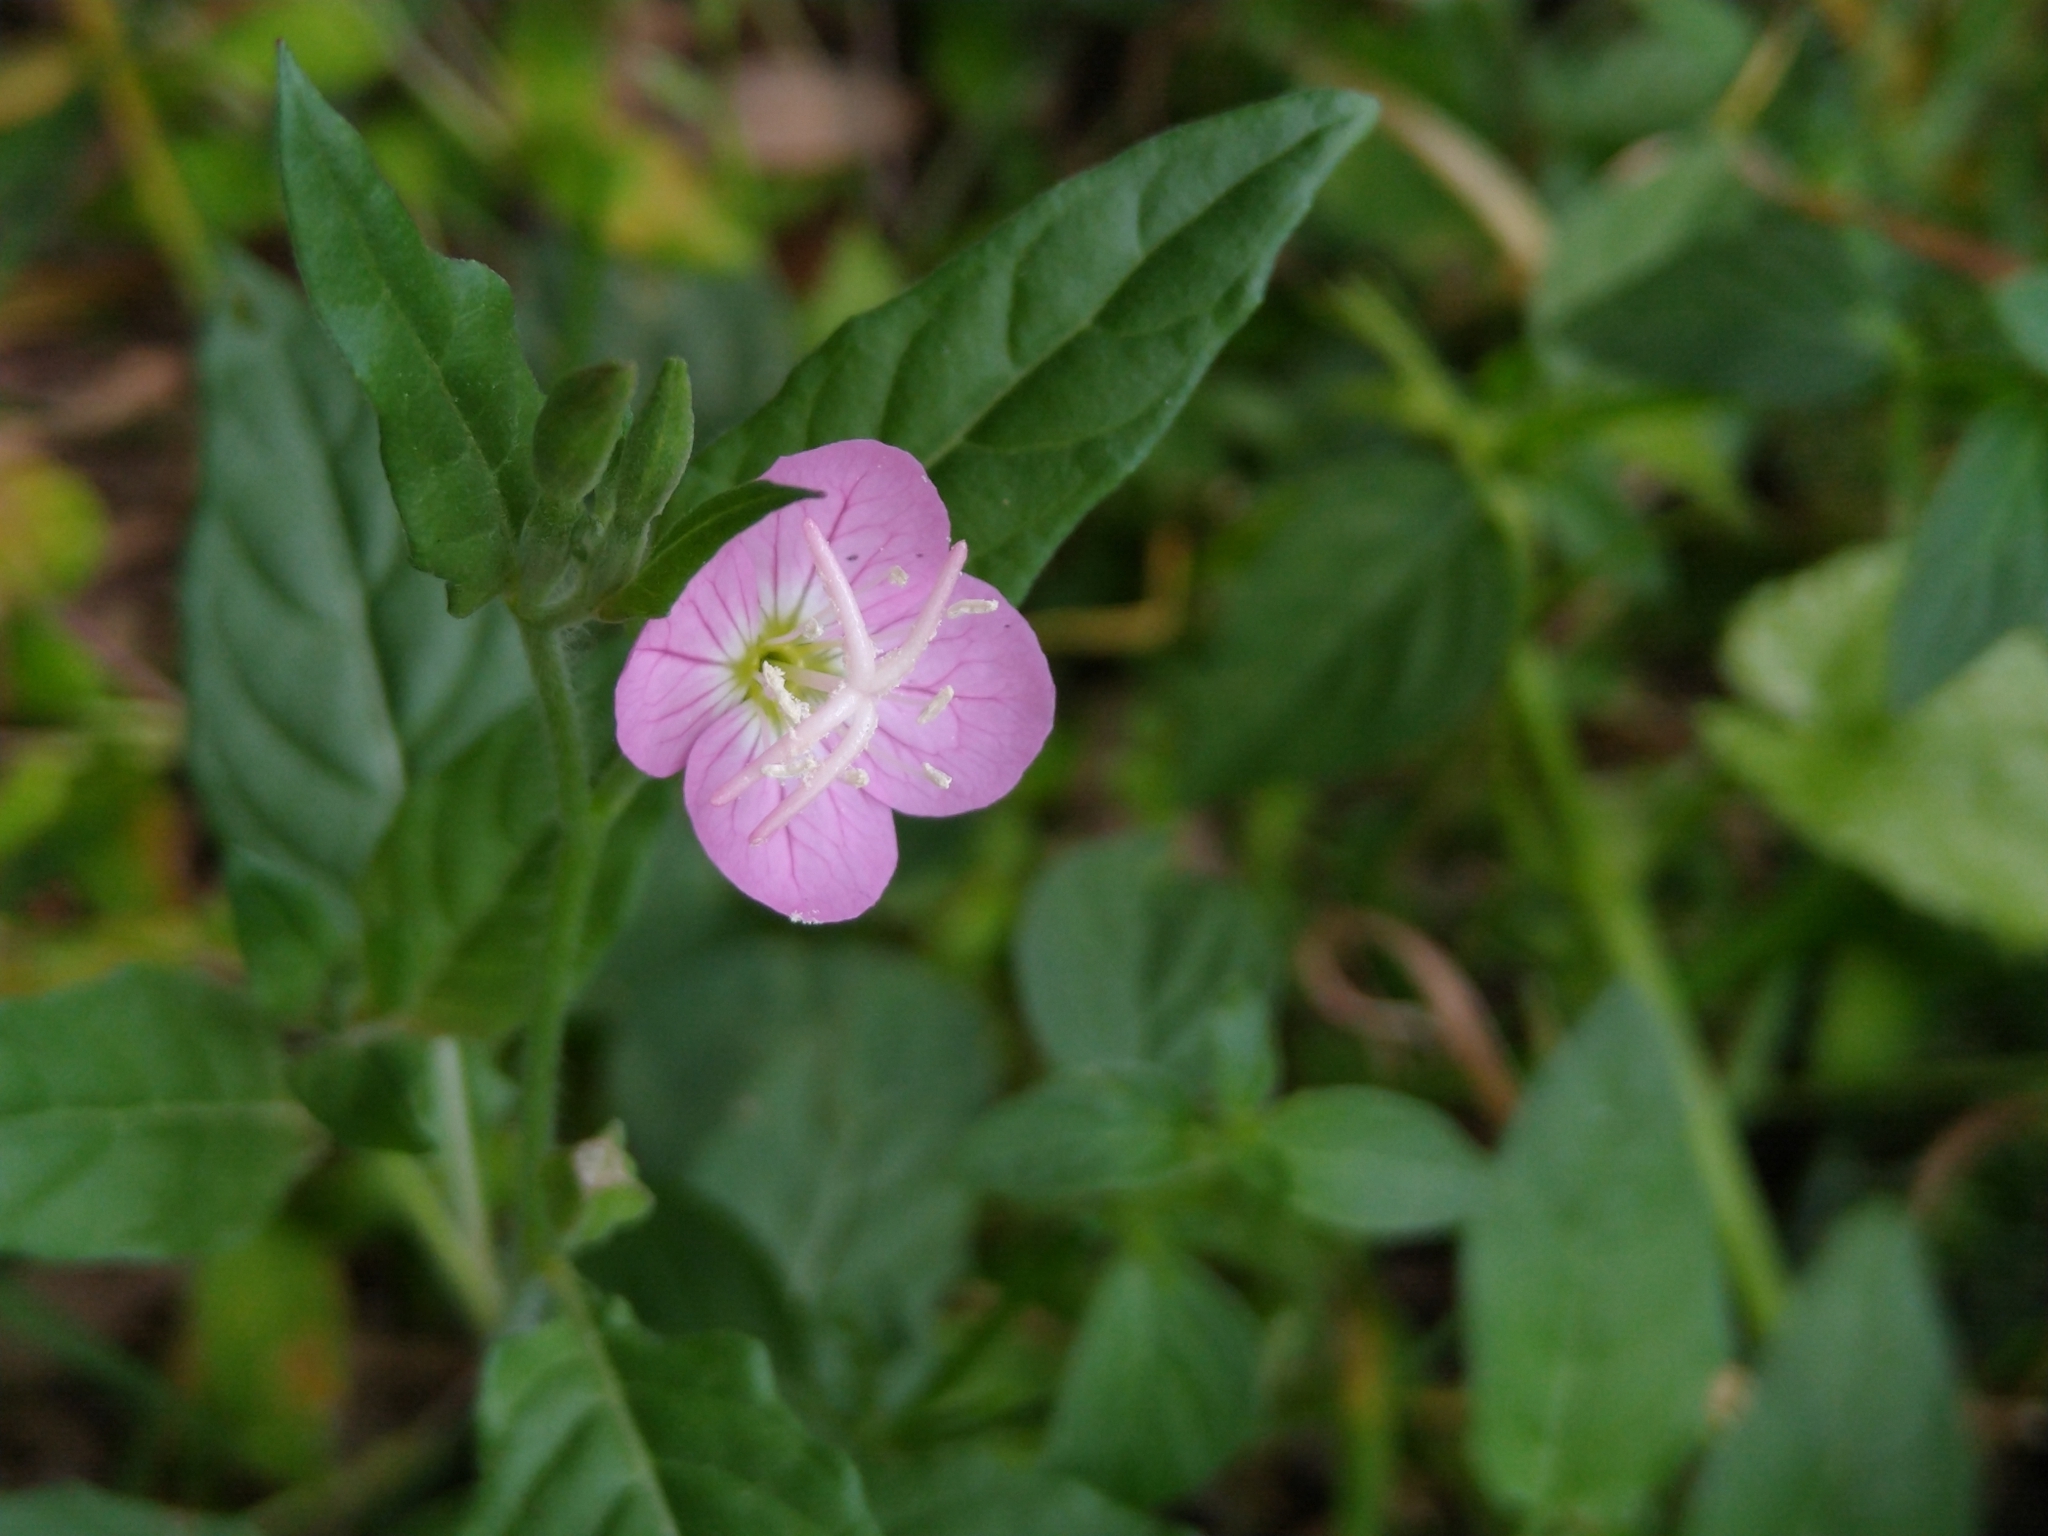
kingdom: Plantae
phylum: Tracheophyta
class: Magnoliopsida
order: Myrtales
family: Onagraceae
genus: Oenothera
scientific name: Oenothera rosea
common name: Rosy evening-primrose
